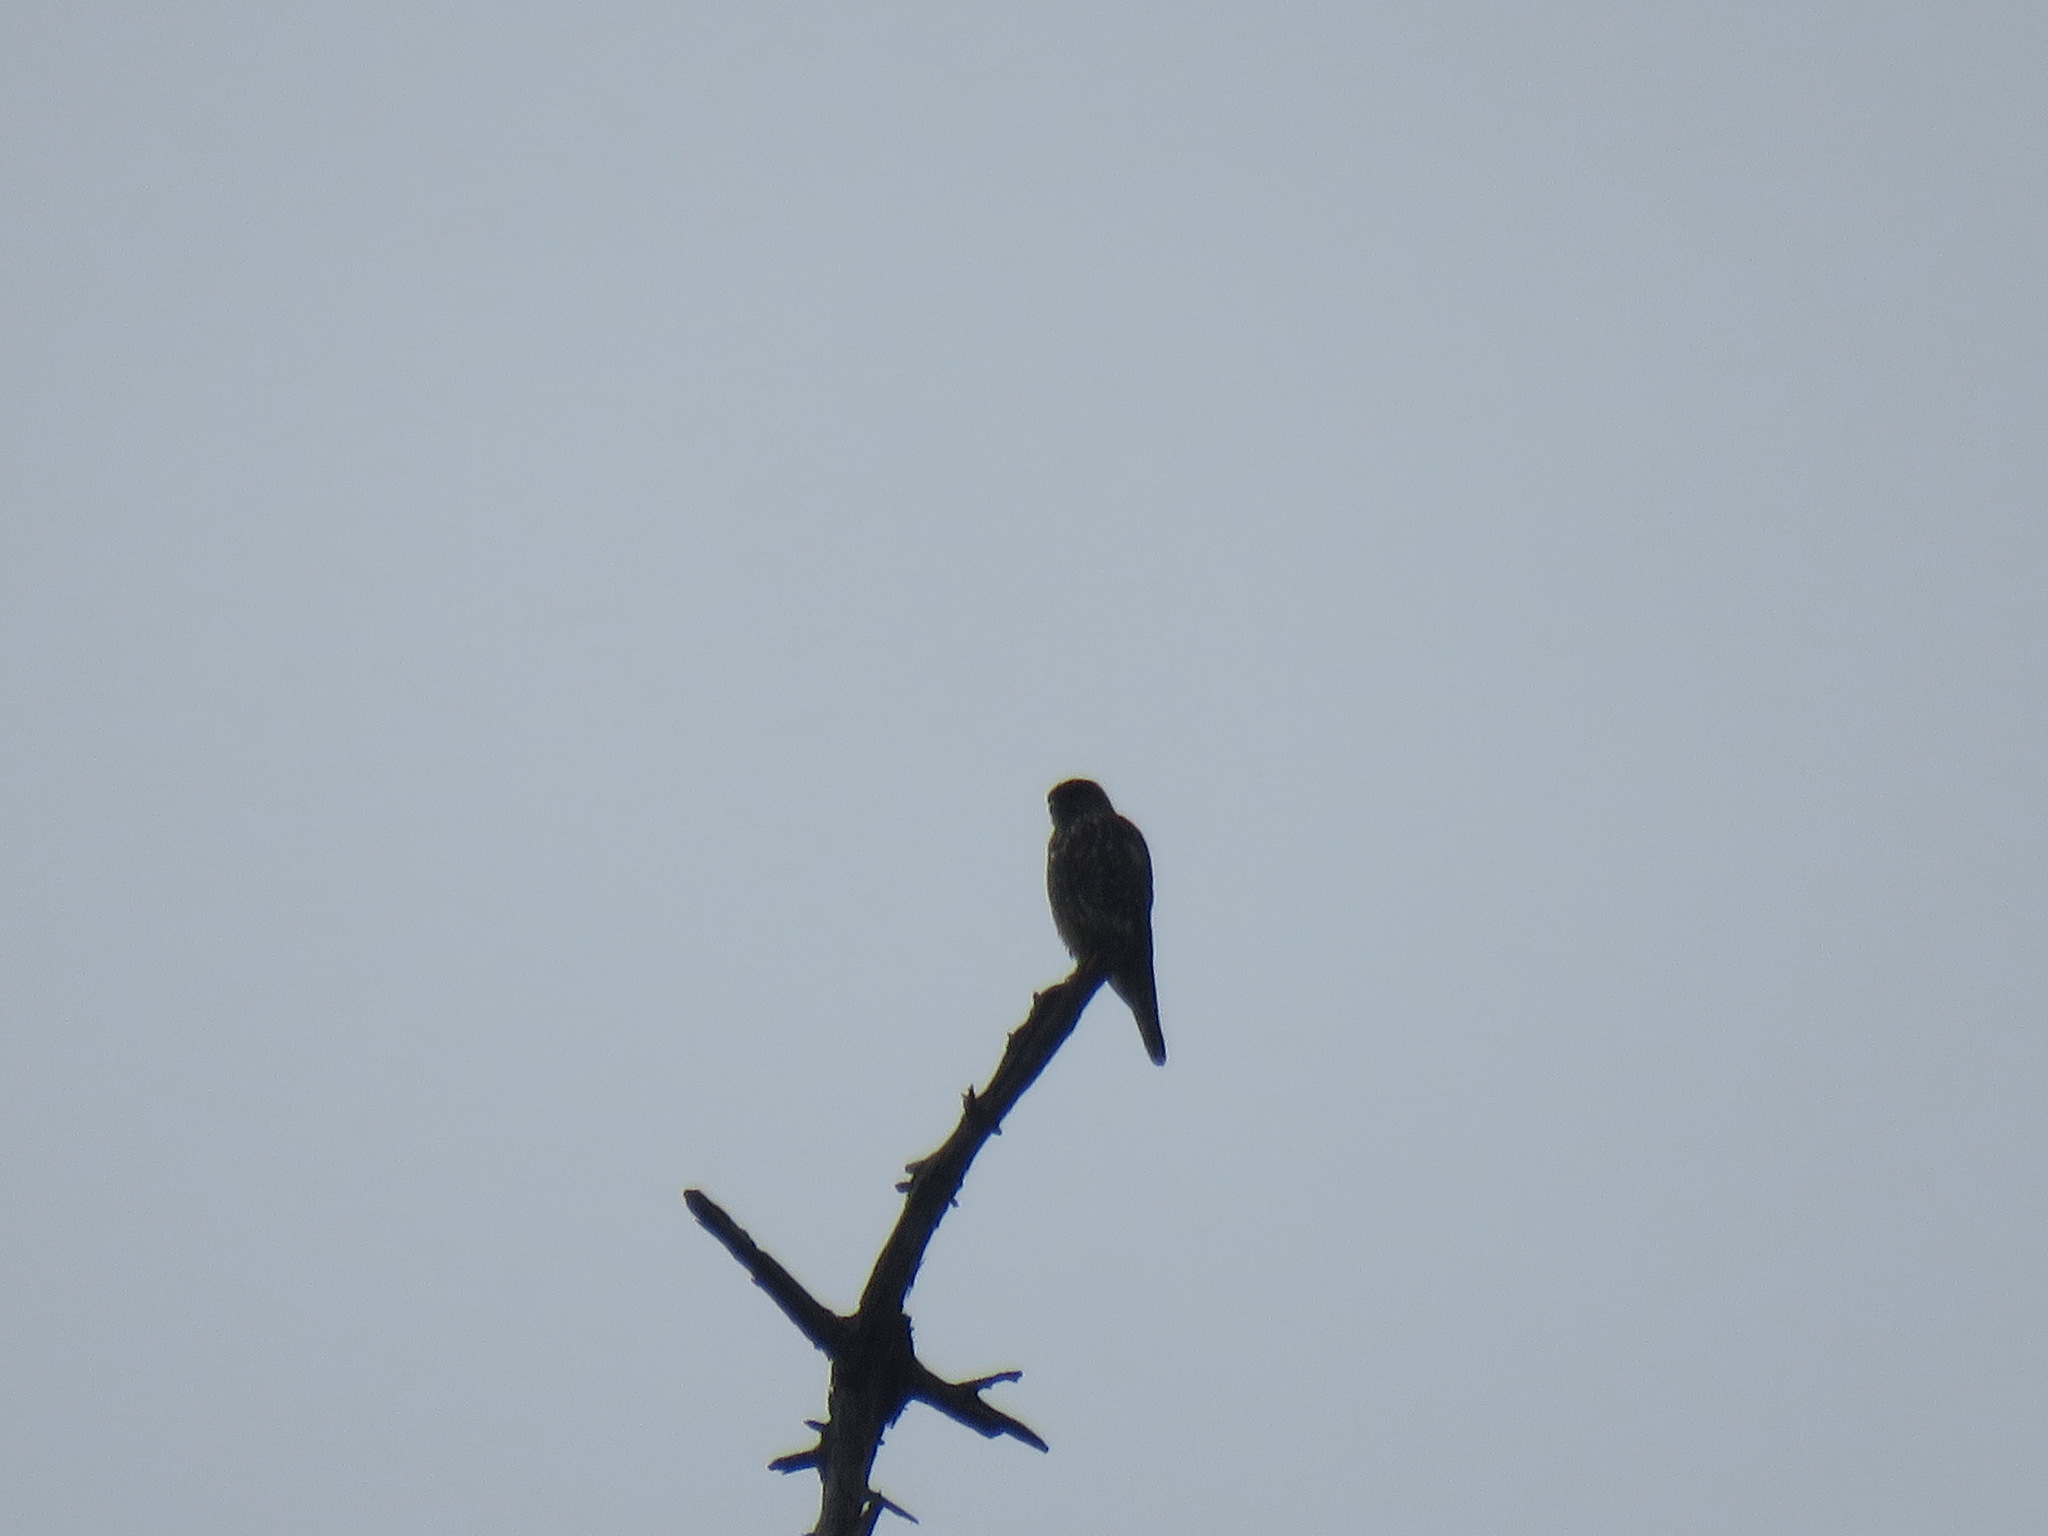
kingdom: Animalia
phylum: Chordata
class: Aves
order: Falconiformes
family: Falconidae
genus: Falco
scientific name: Falco columbarius
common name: Merlin
